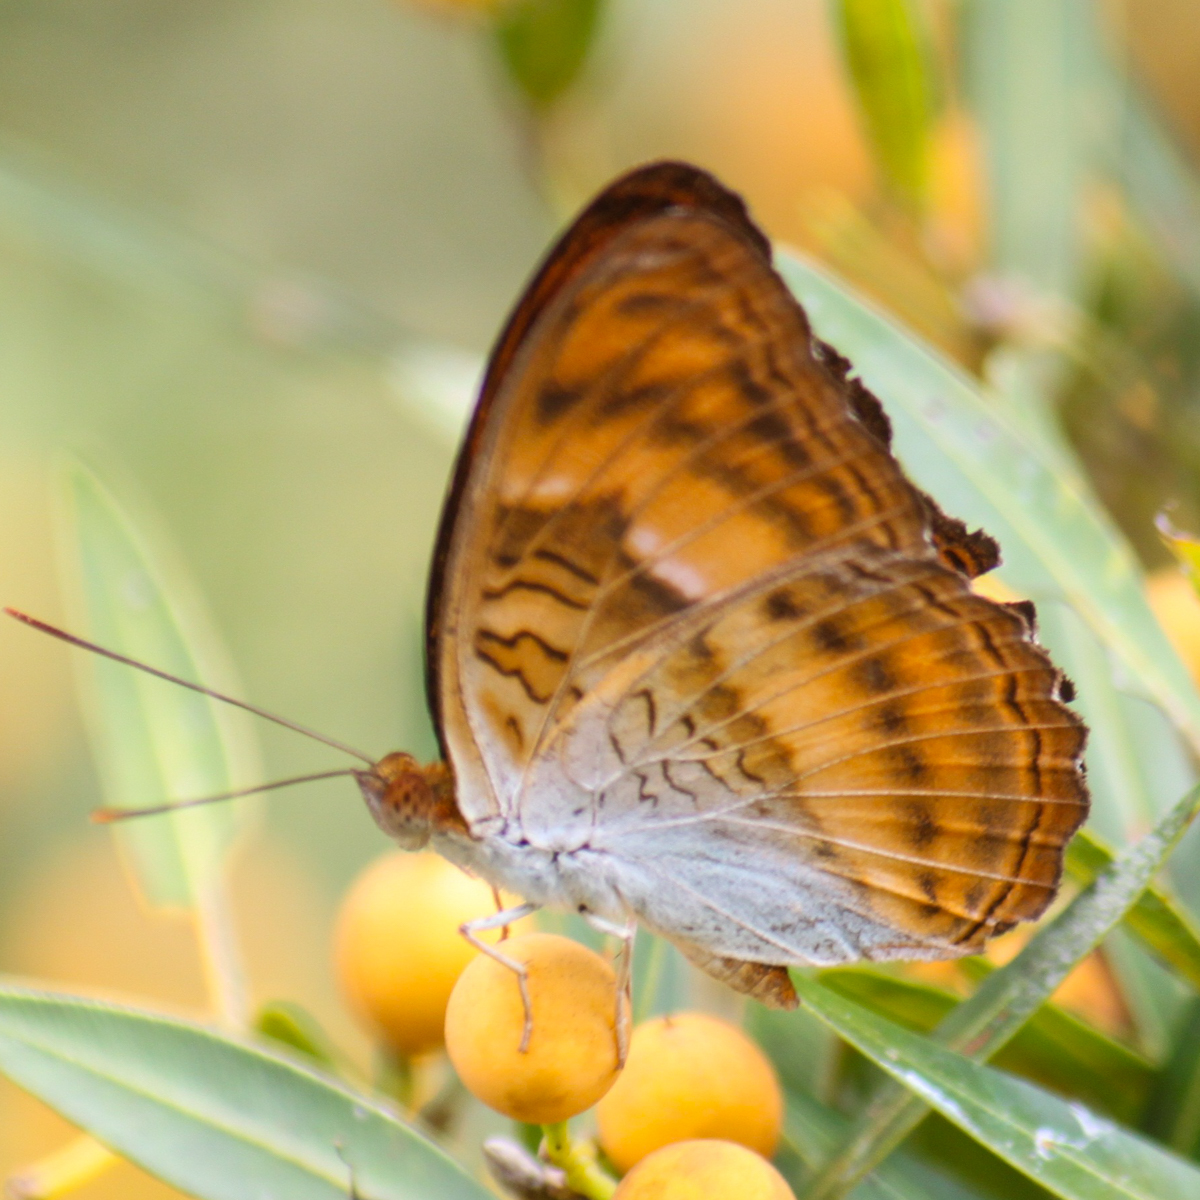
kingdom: Animalia
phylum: Arthropoda
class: Insecta
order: Lepidoptera
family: Nymphalidae
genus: Pandita
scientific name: Pandita sinope
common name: Colonel
